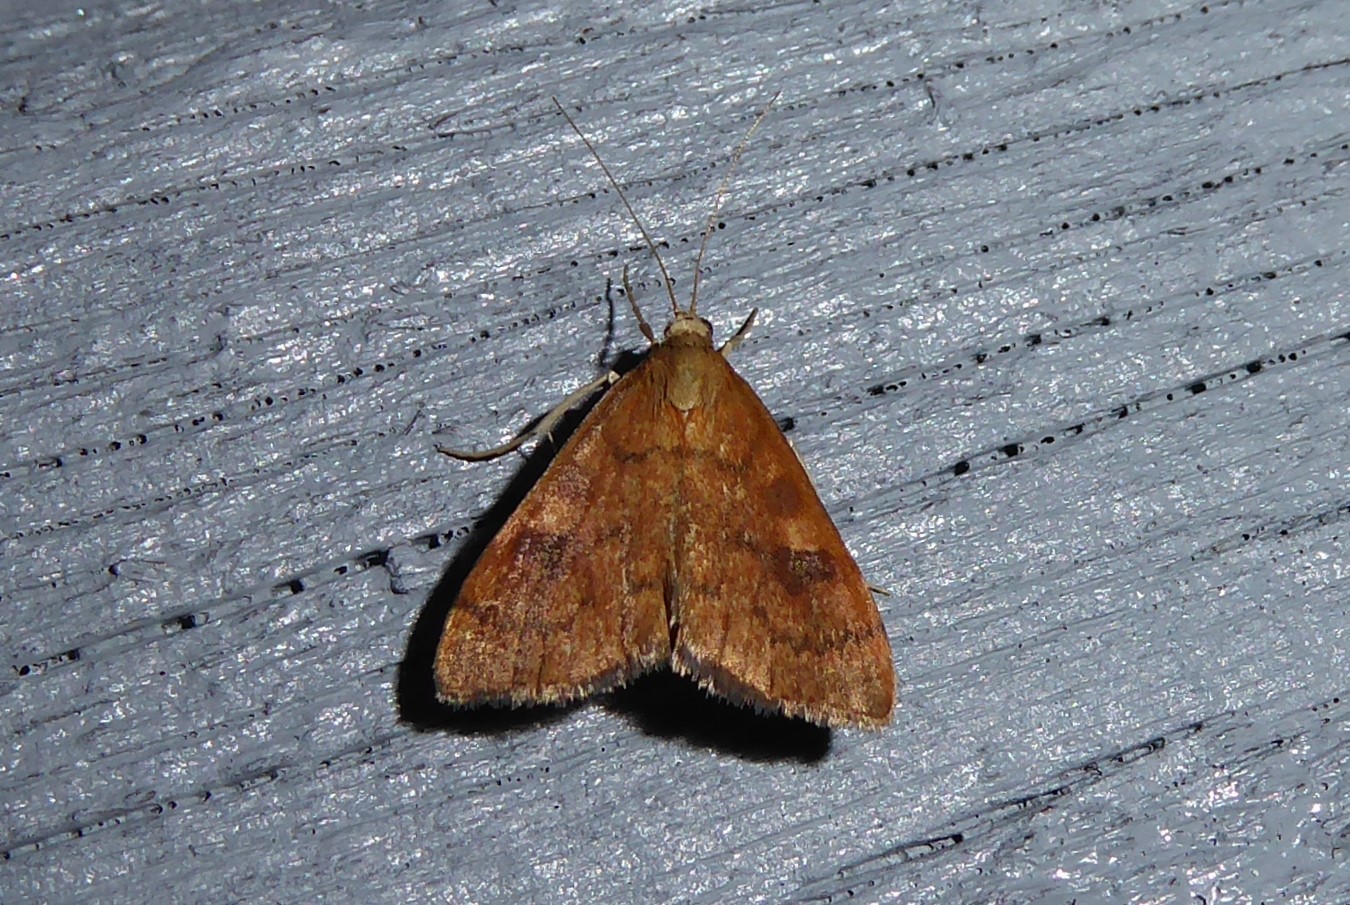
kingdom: Animalia
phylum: Arthropoda
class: Insecta
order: Lepidoptera
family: Crambidae
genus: Udea
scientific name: Udea Mnesictena flavidalis
